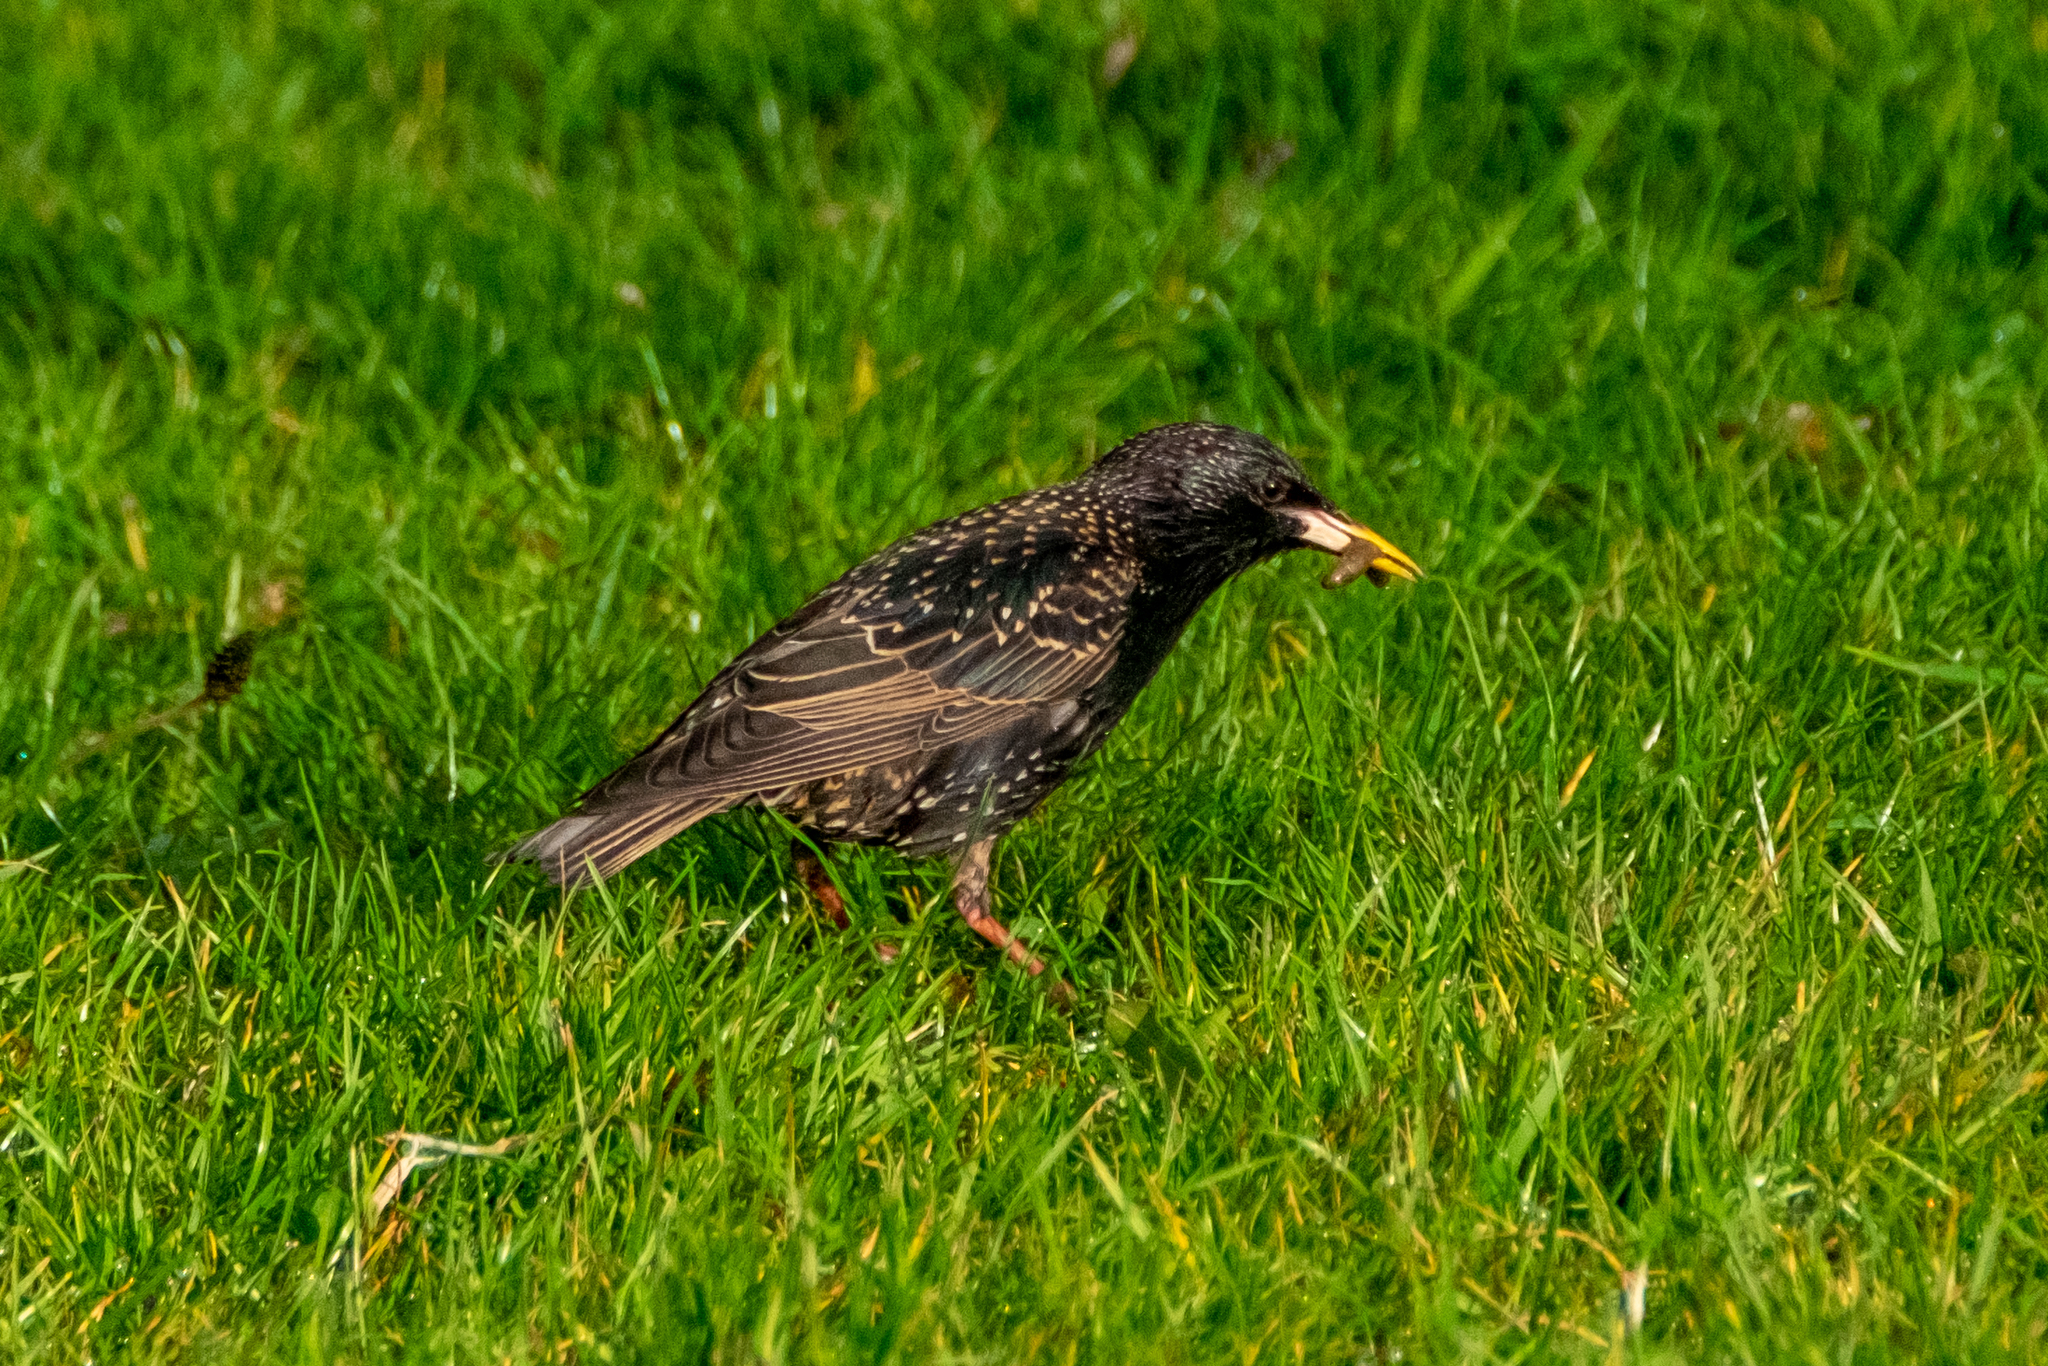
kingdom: Animalia
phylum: Chordata
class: Aves
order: Passeriformes
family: Sturnidae
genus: Sturnus
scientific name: Sturnus vulgaris
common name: Common starling
